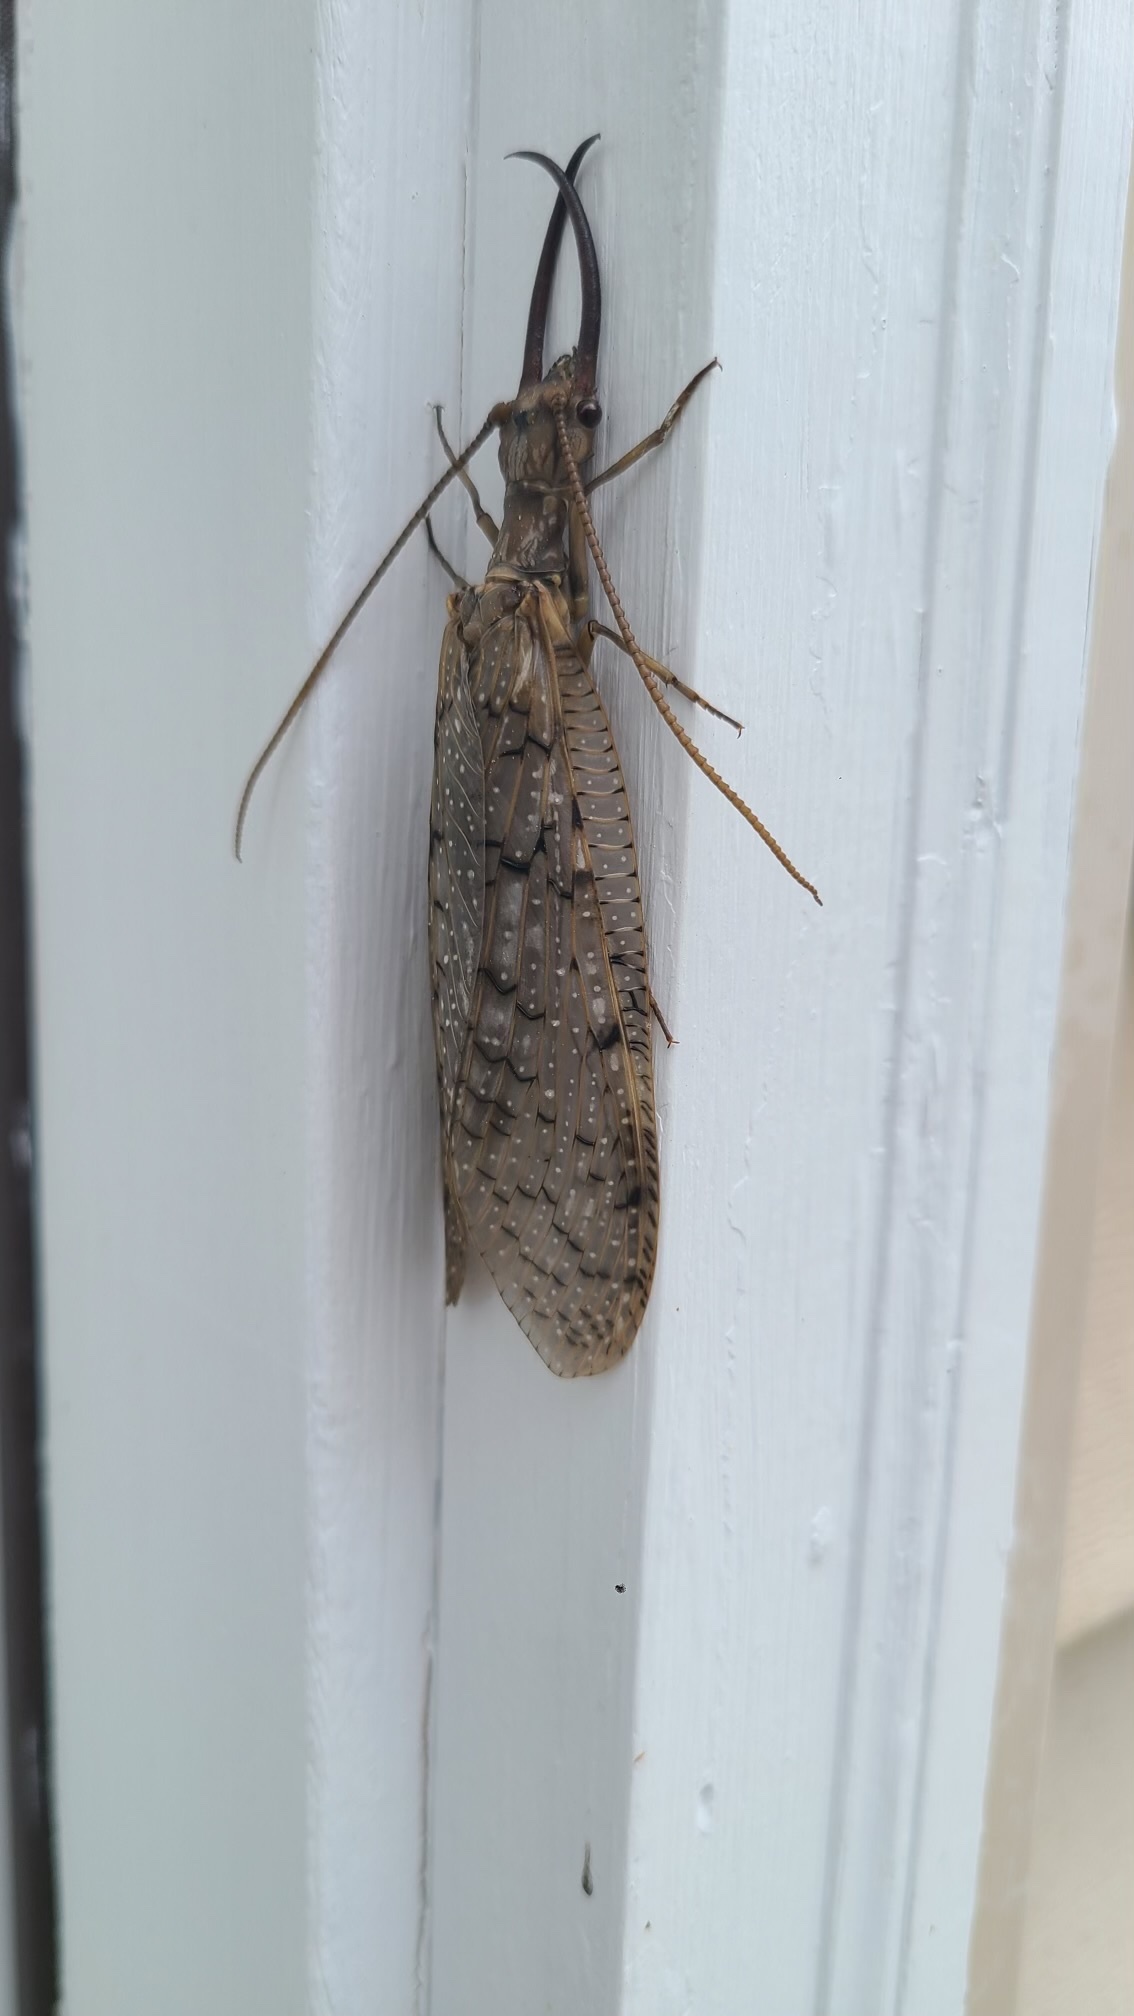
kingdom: Animalia
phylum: Arthropoda
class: Insecta
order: Megaloptera
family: Corydalidae
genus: Corydalus
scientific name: Corydalus cornutus
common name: Dobsonfly
